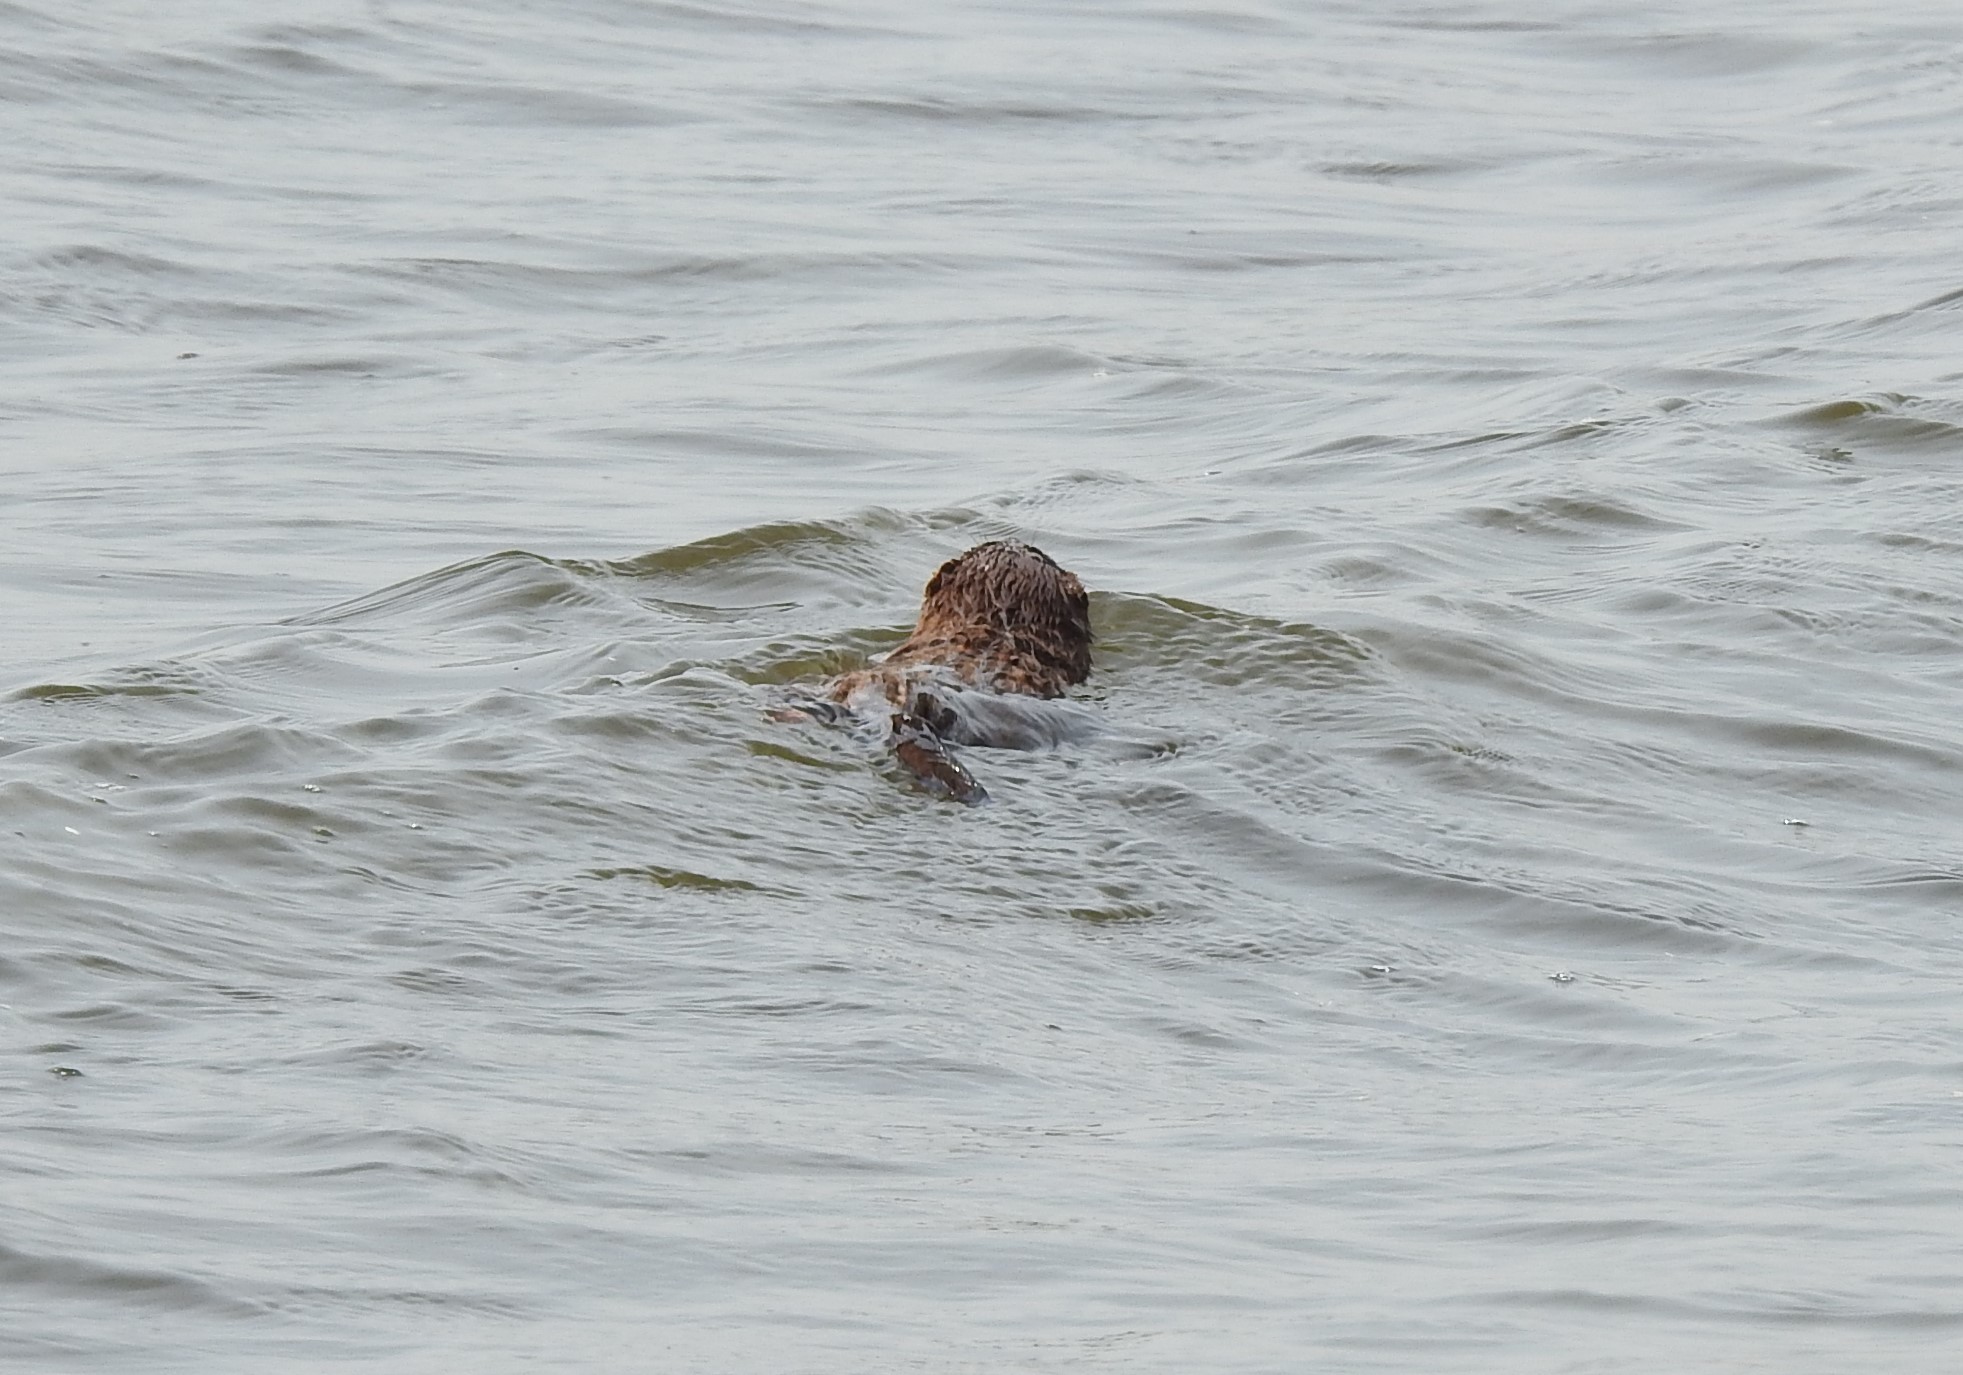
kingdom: Animalia
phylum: Chordata
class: Mammalia
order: Carnivora
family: Mustelidae
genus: Mustela
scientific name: Mustela
